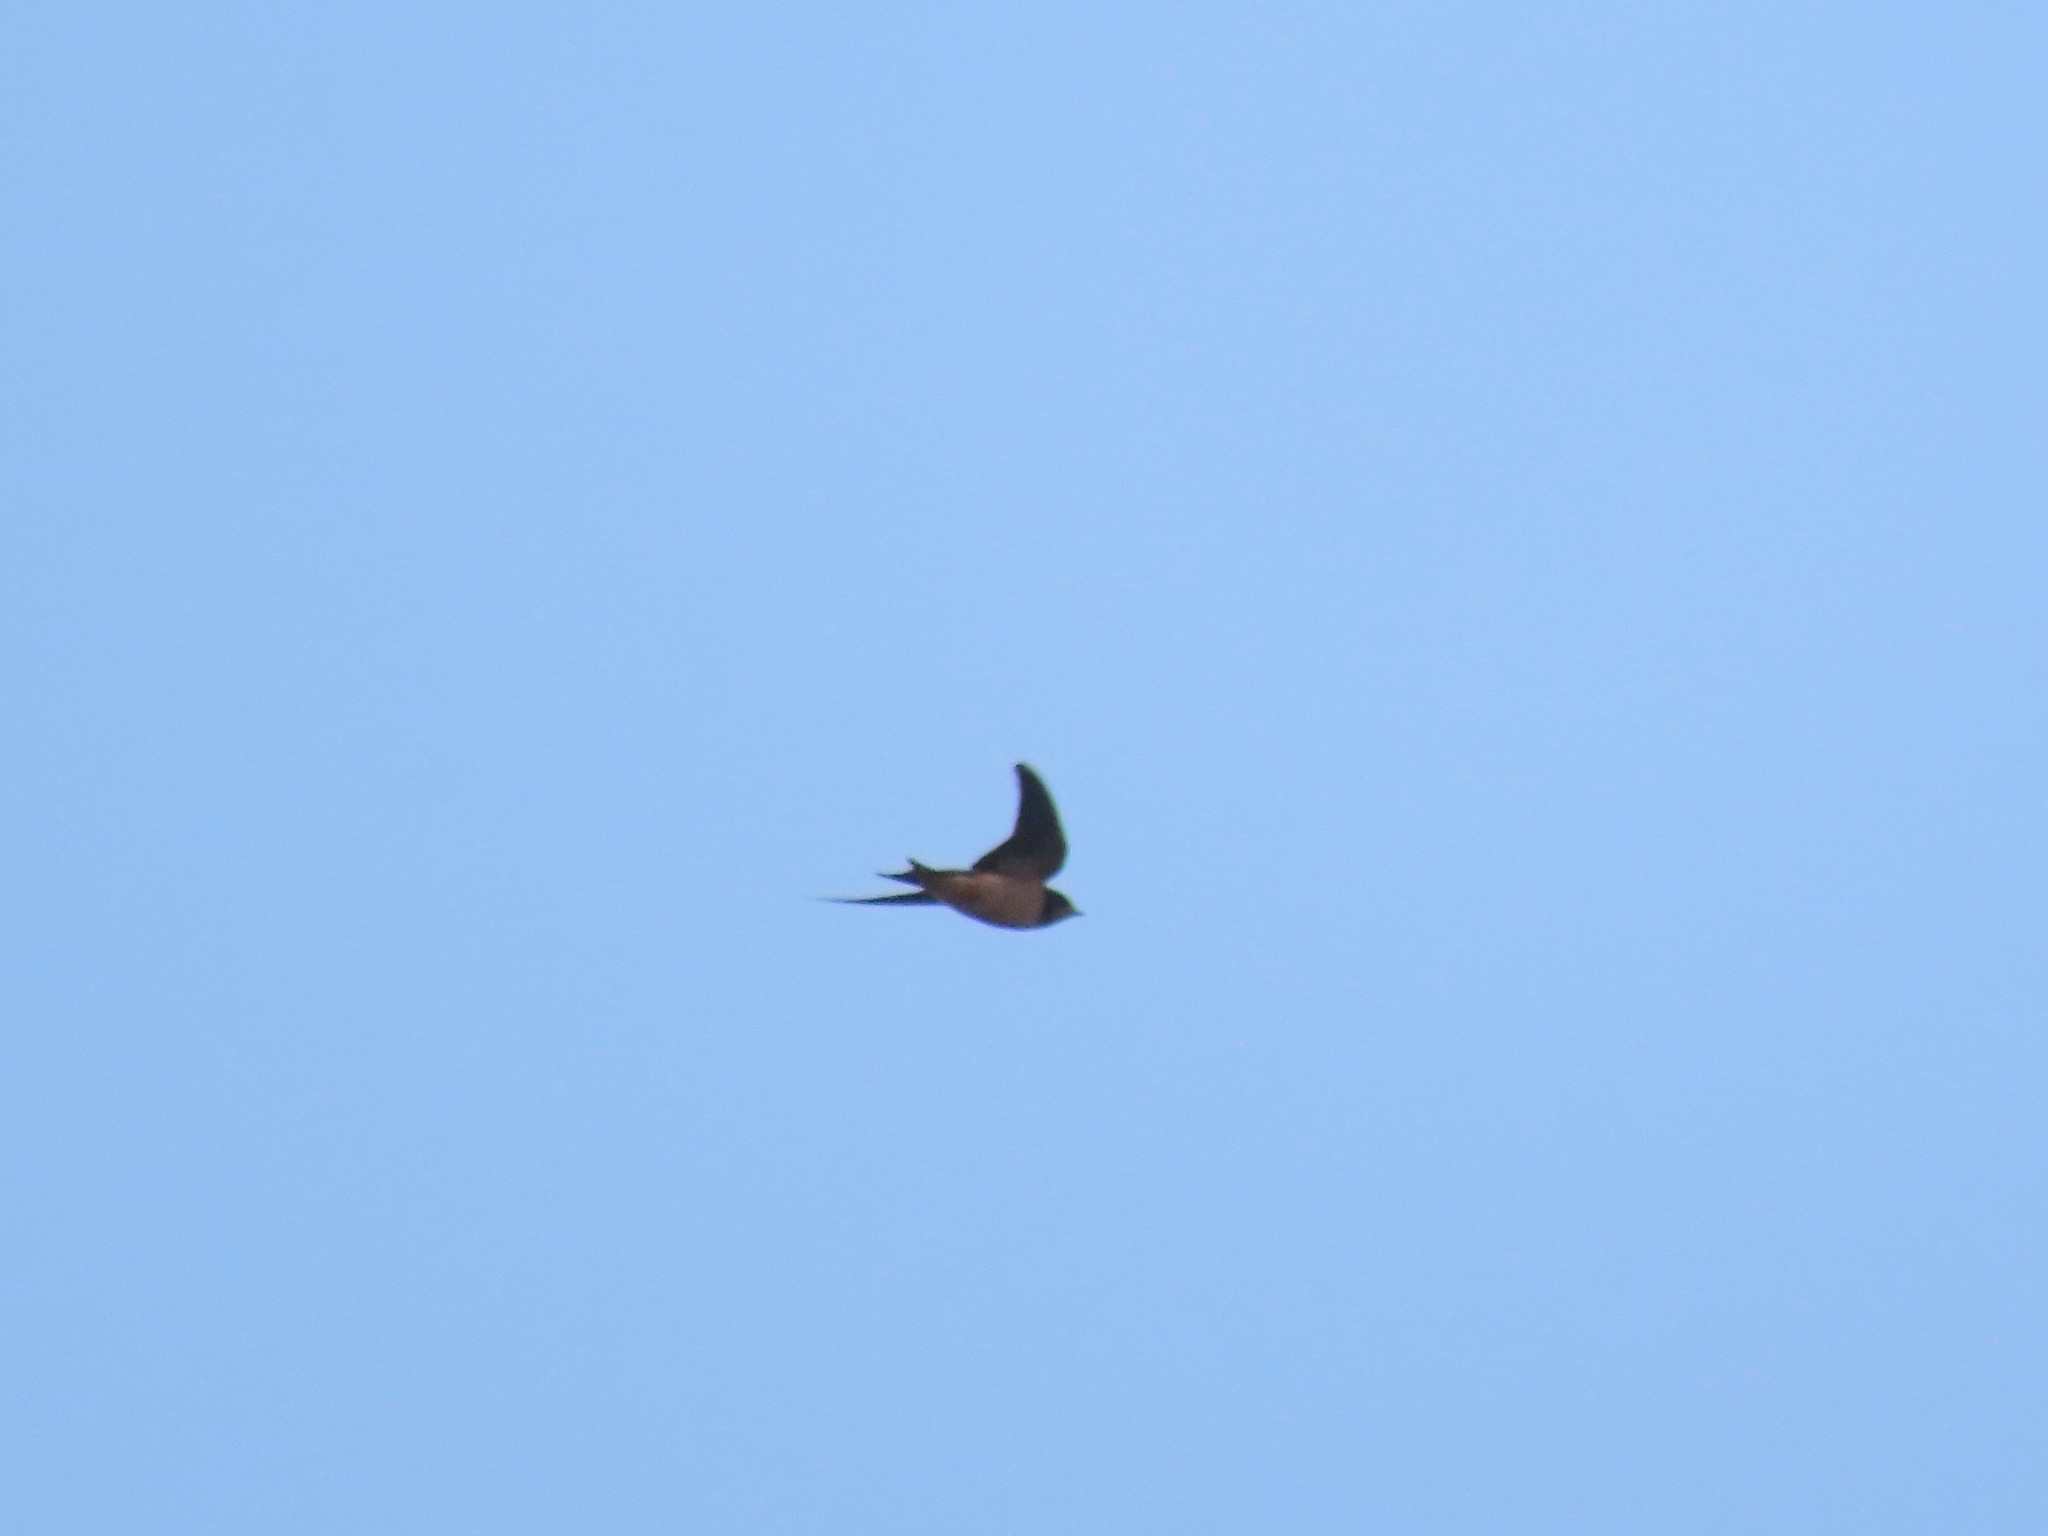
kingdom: Animalia
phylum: Chordata
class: Aves
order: Passeriformes
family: Hirundinidae
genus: Hirundo
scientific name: Hirundo rustica
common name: Barn swallow
